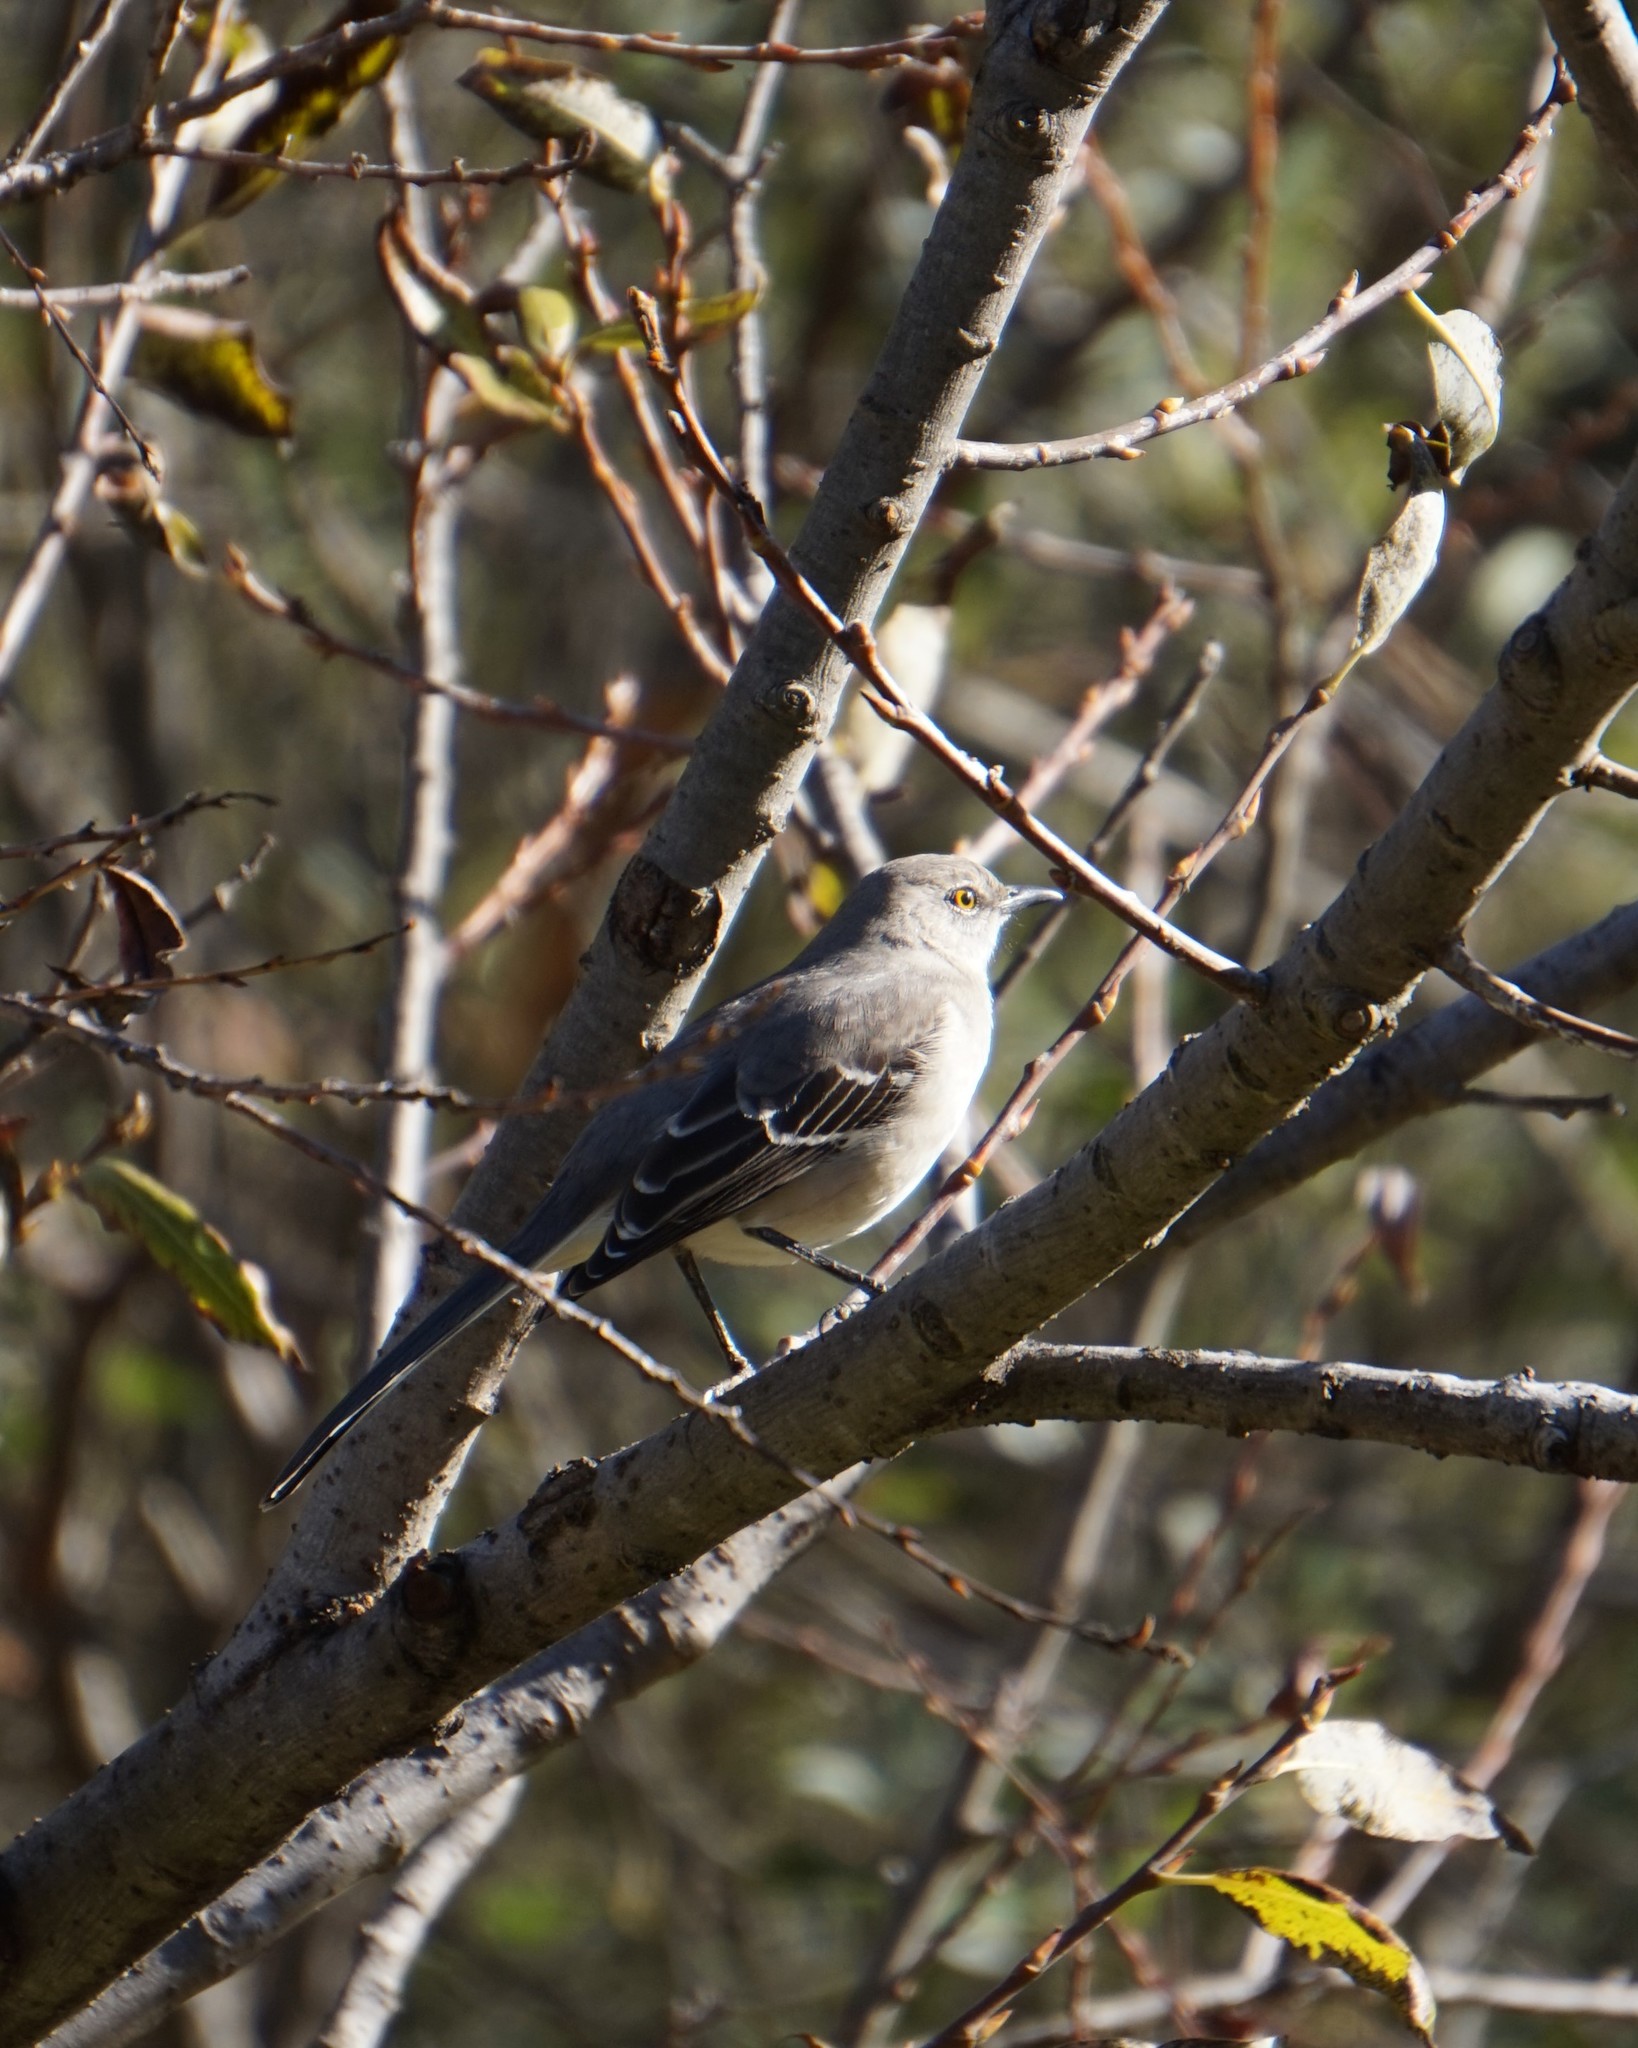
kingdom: Animalia
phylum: Chordata
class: Aves
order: Passeriformes
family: Mimidae
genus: Mimus
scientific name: Mimus polyglottos
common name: Northern mockingbird
